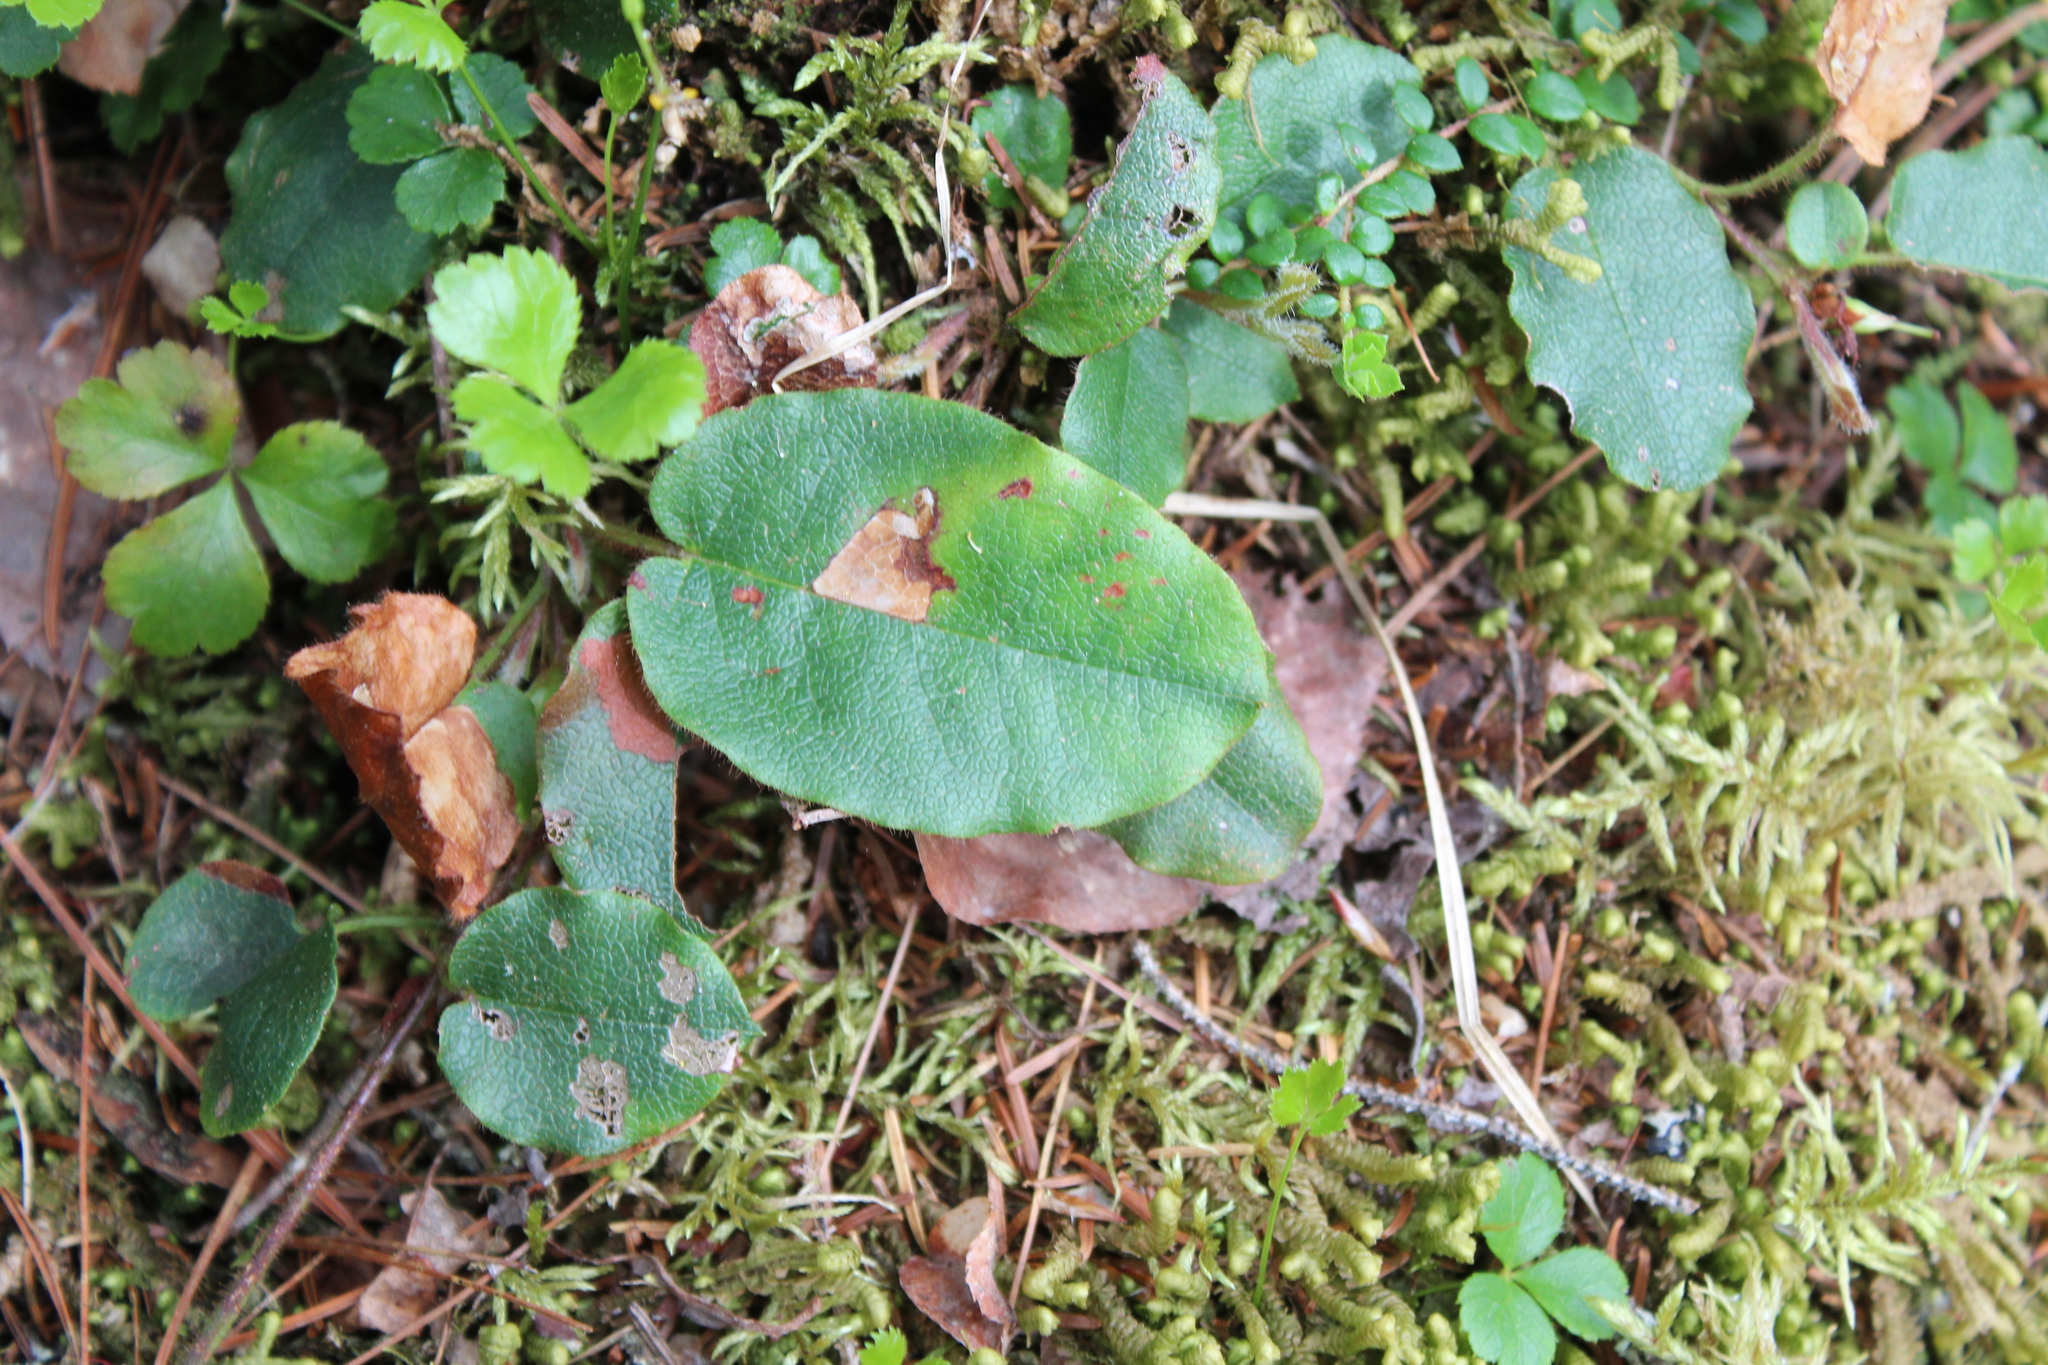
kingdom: Plantae
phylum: Tracheophyta
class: Magnoliopsida
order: Ericales
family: Ericaceae
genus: Epigaea
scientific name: Epigaea repens
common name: Gravelroot
